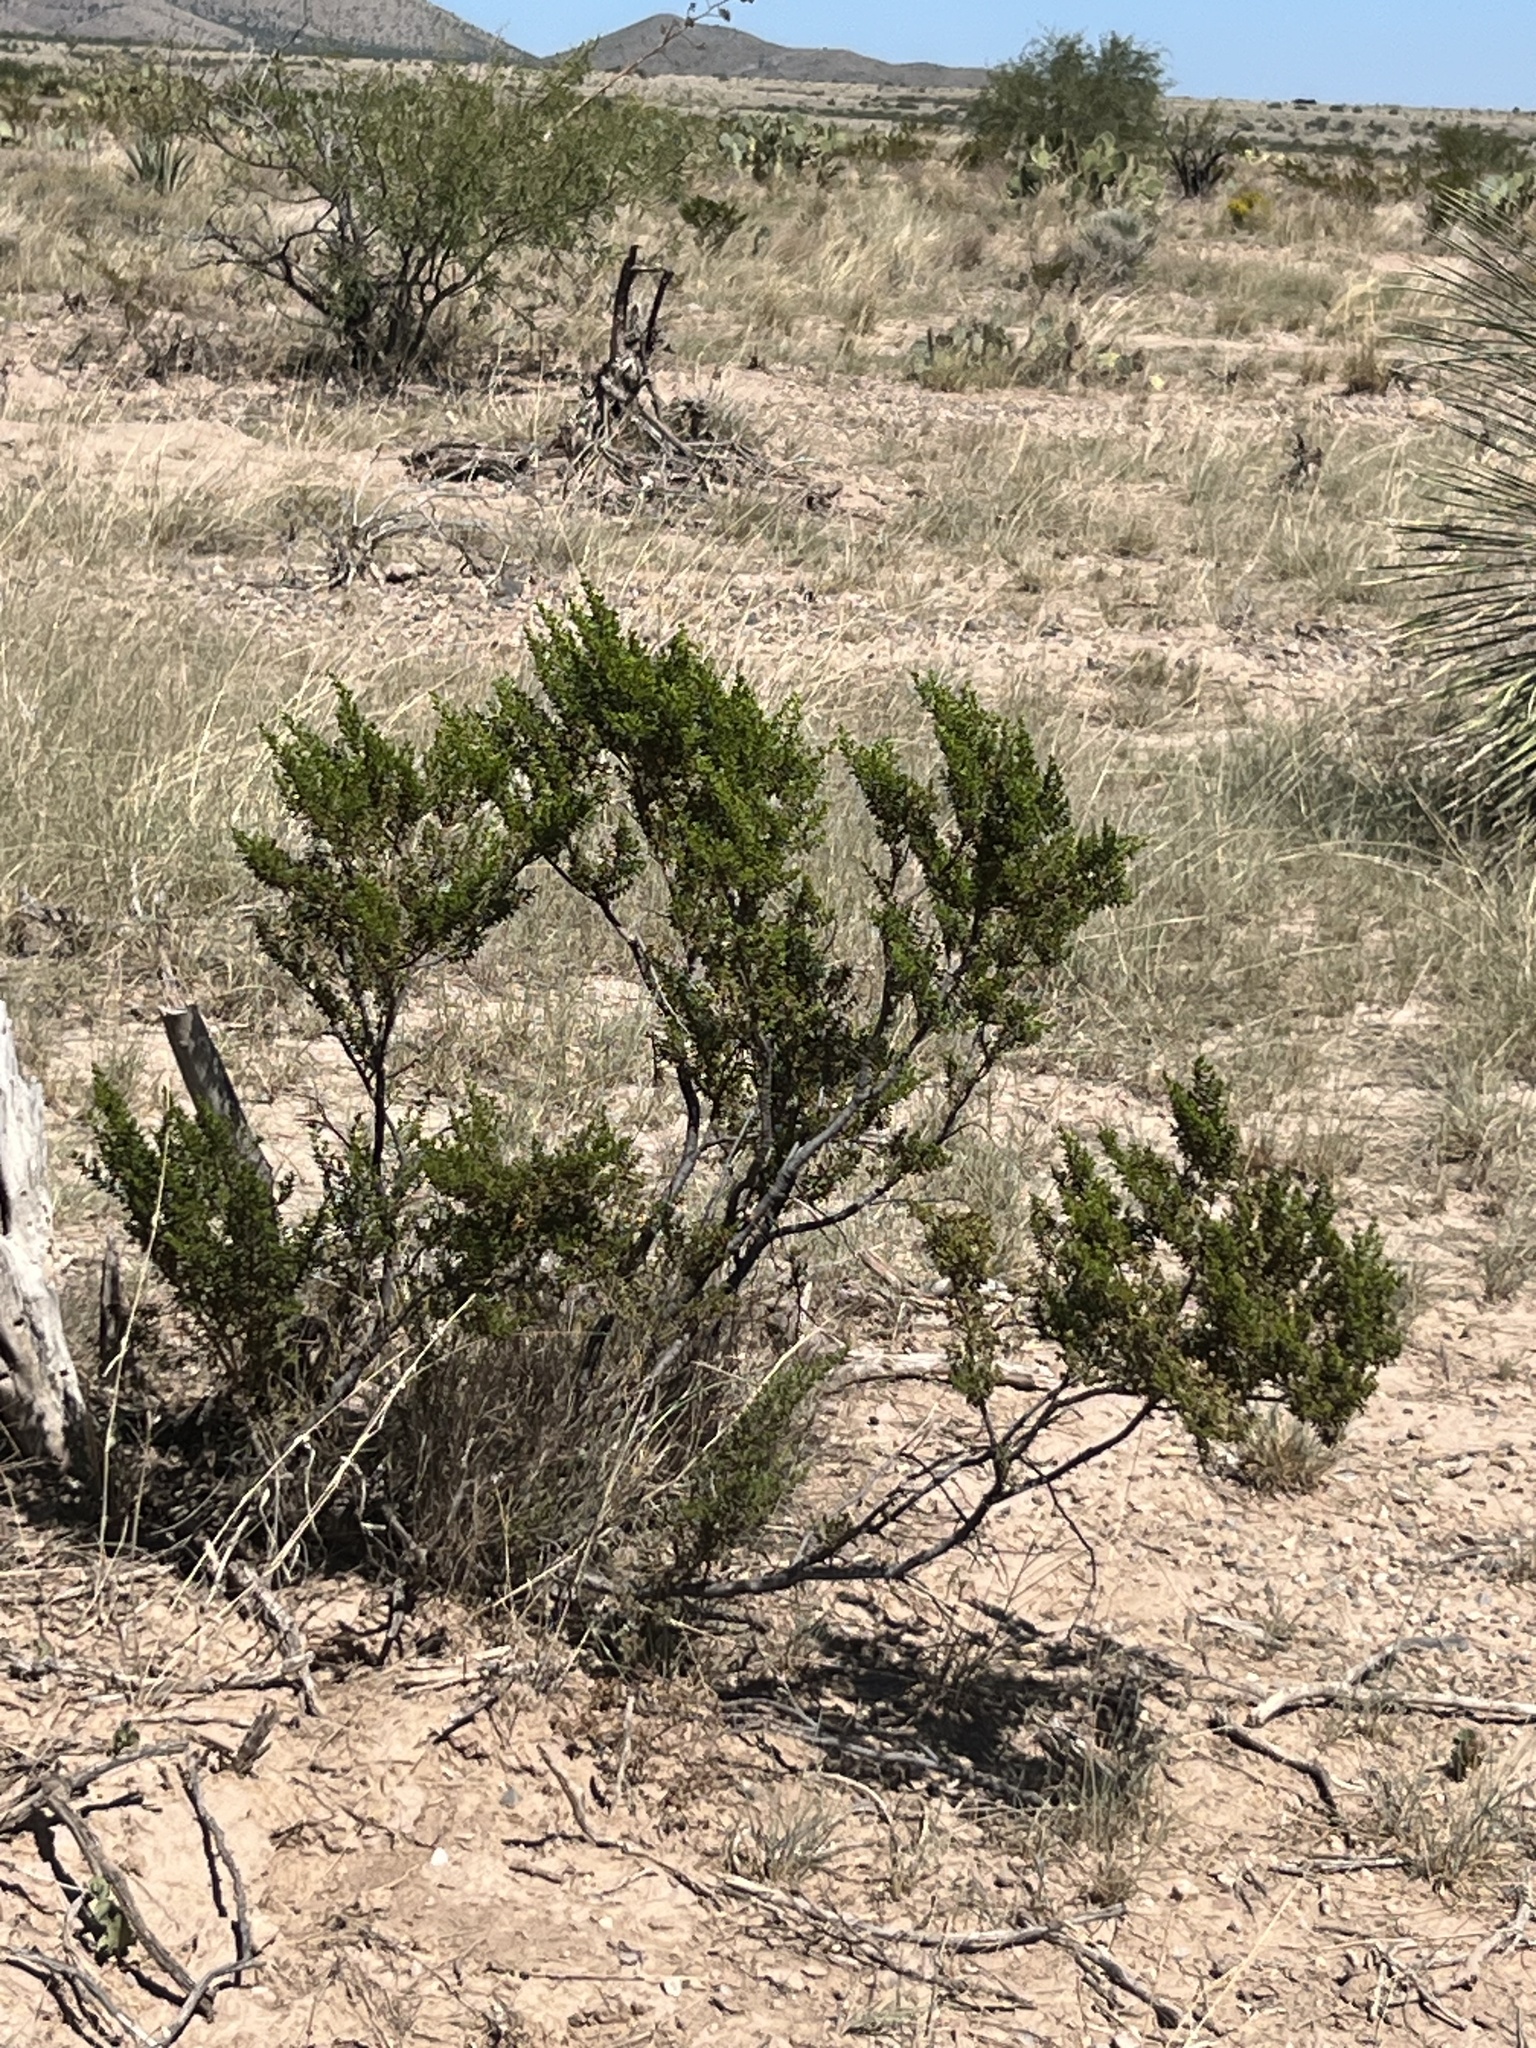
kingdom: Plantae
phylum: Tracheophyta
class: Magnoliopsida
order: Zygophyllales
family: Zygophyllaceae
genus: Larrea
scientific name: Larrea tridentata
